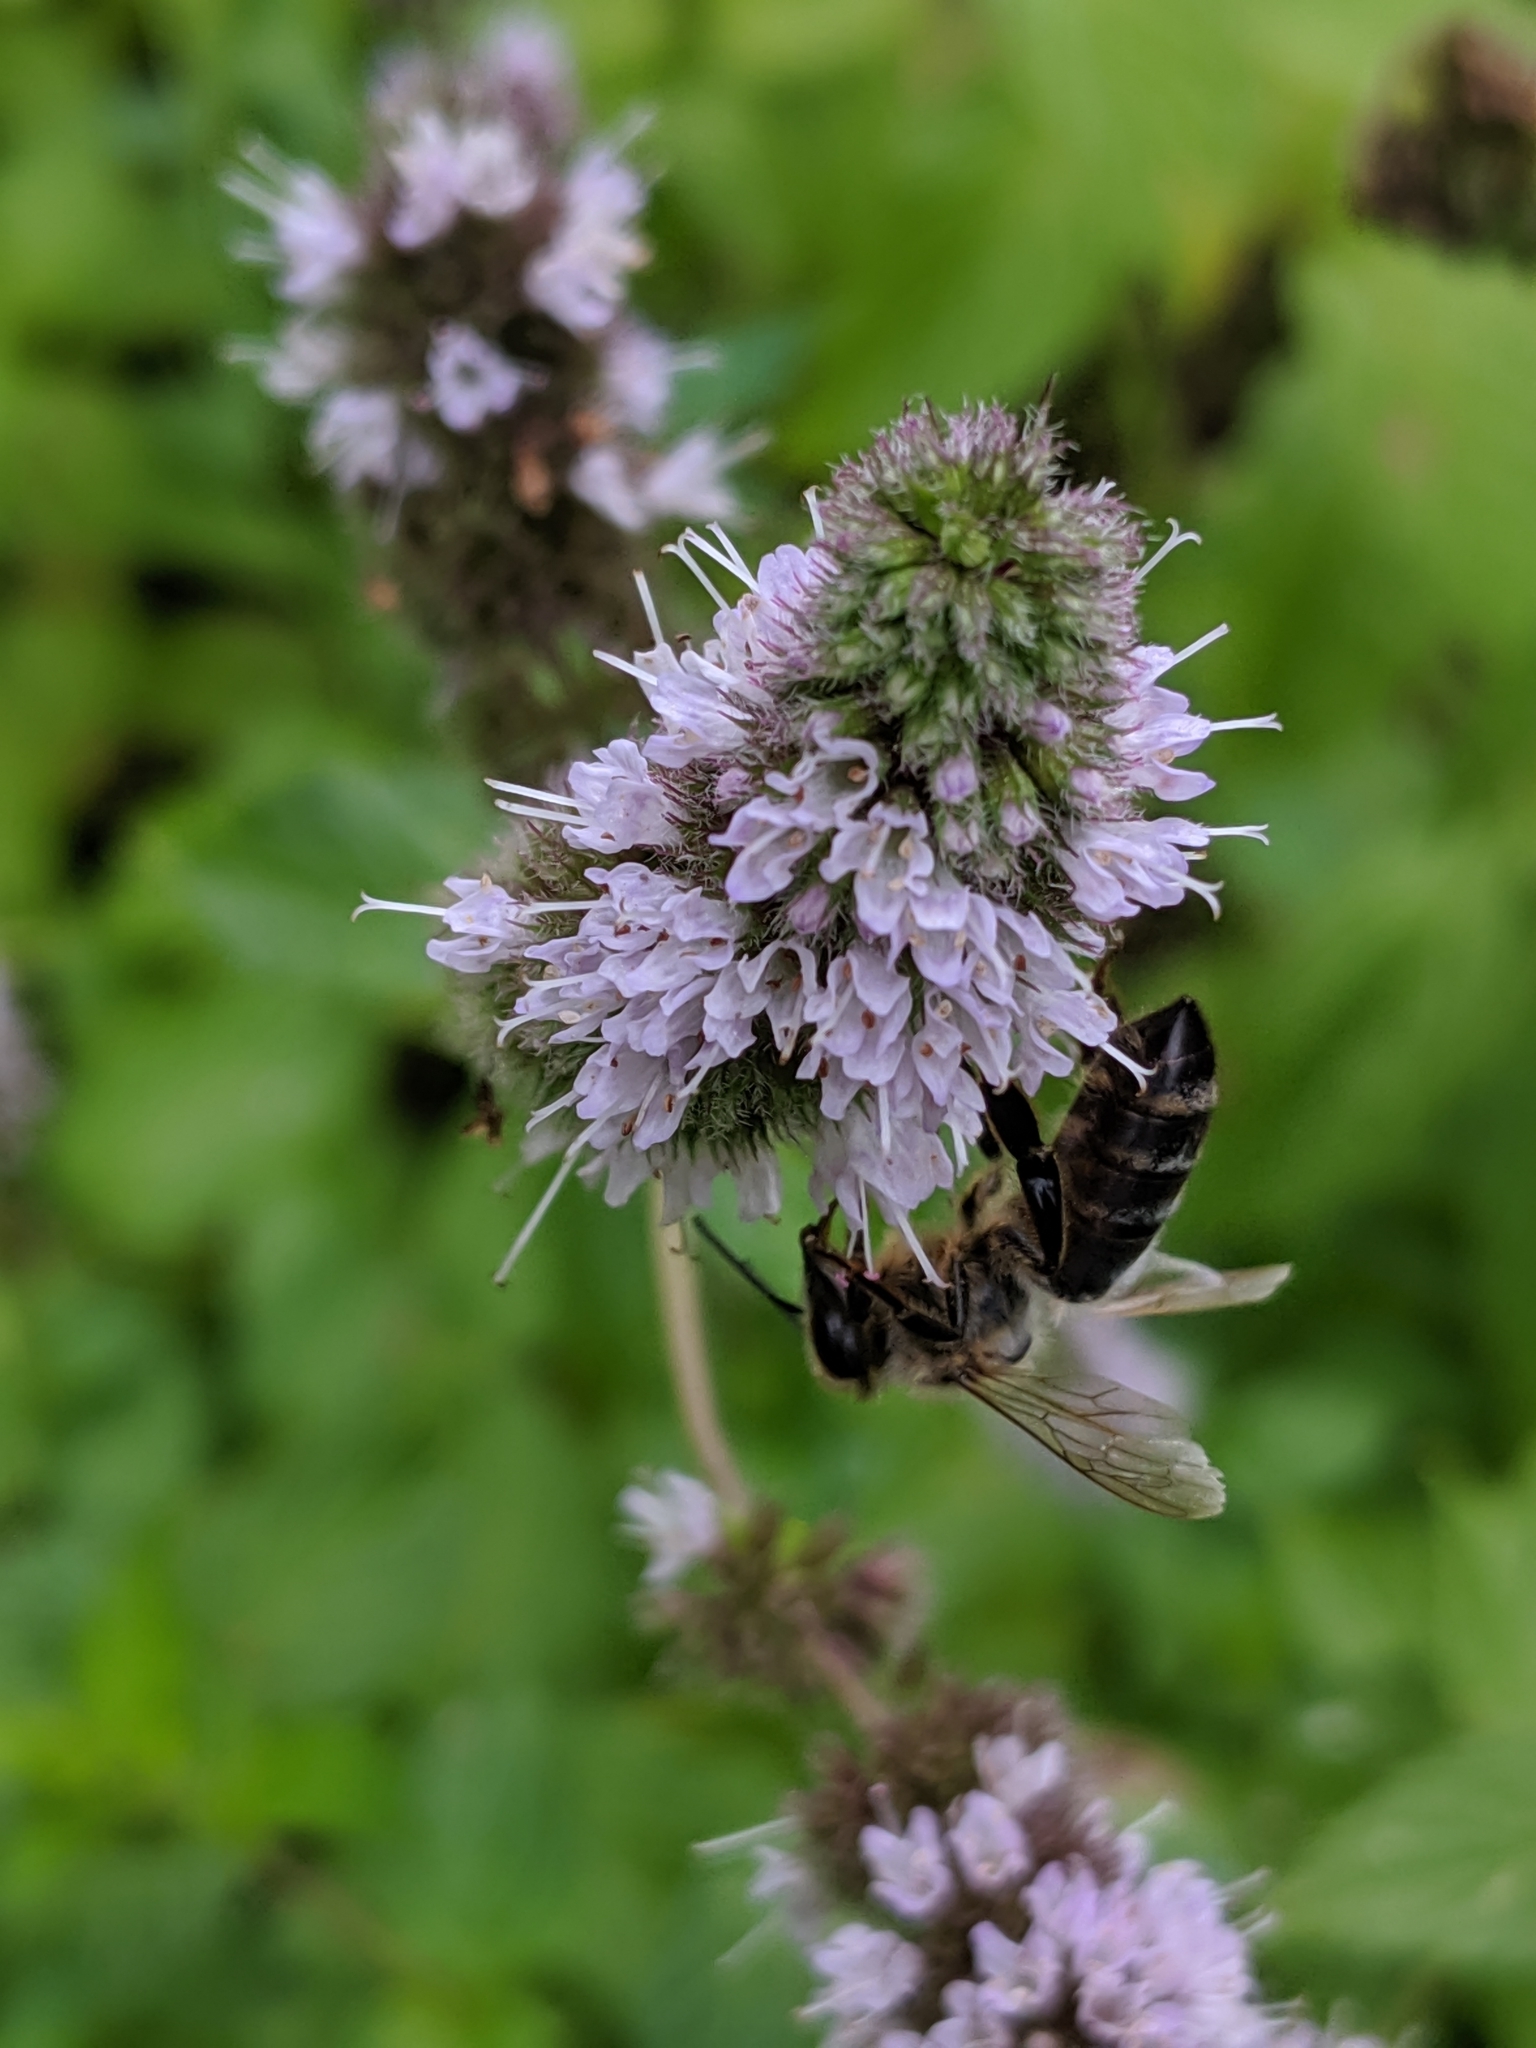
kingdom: Animalia
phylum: Arthropoda
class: Insecta
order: Hymenoptera
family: Apidae
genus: Apis
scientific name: Apis mellifera
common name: Honey bee
